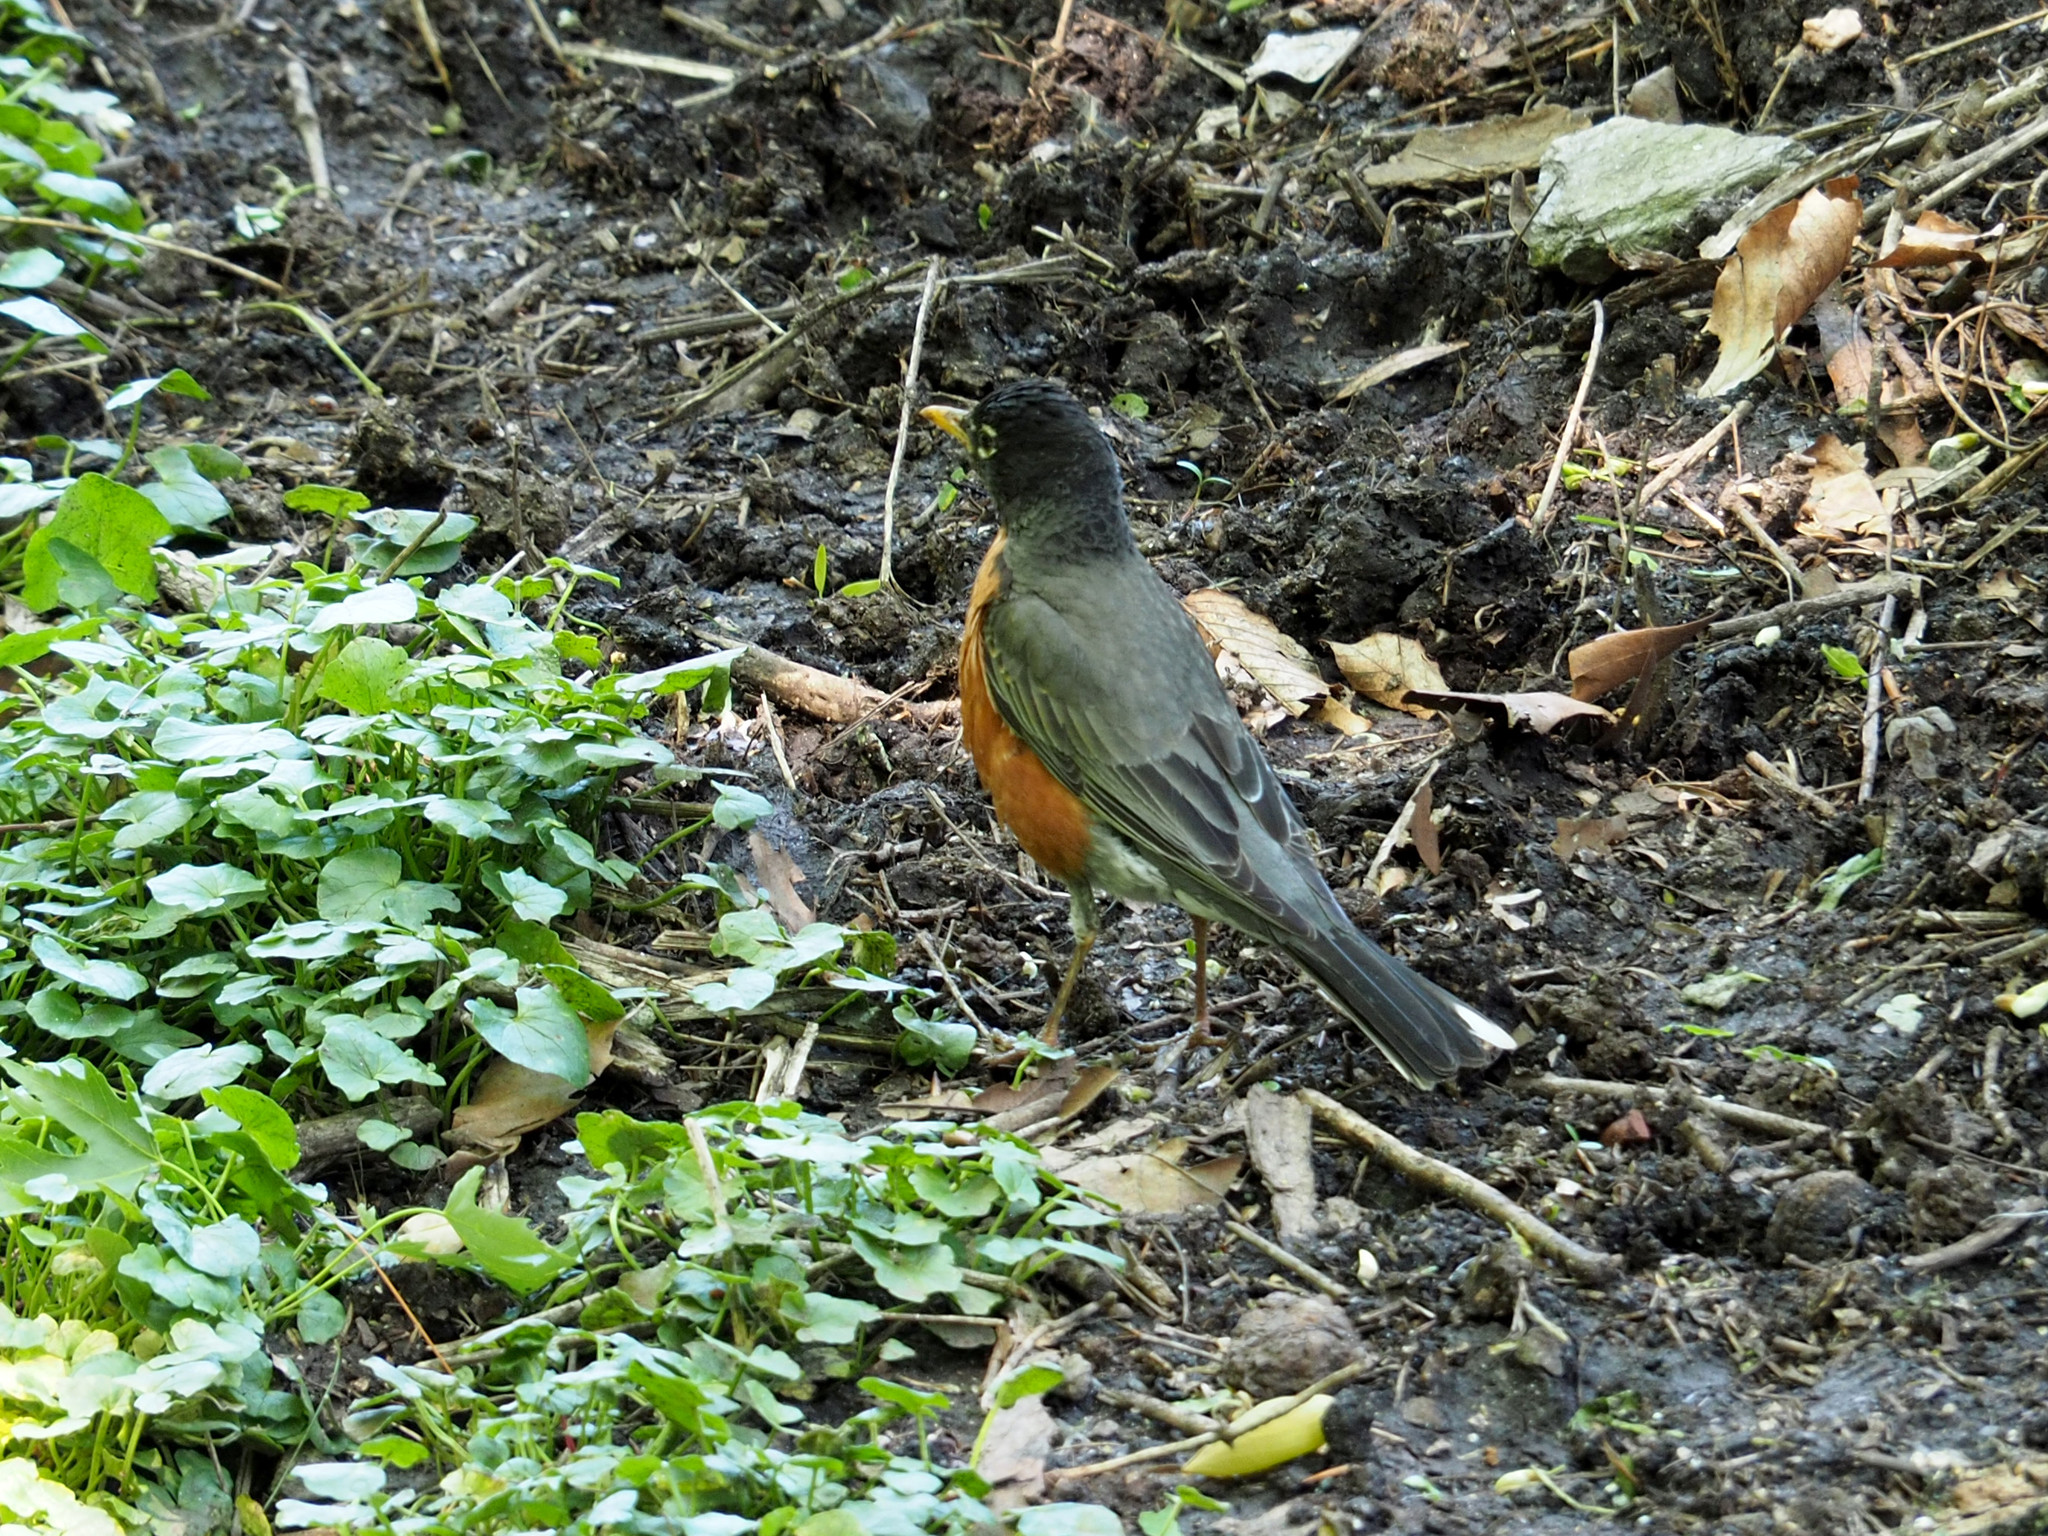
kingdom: Animalia
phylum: Chordata
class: Aves
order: Passeriformes
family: Turdidae
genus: Turdus
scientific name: Turdus migratorius
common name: American robin
